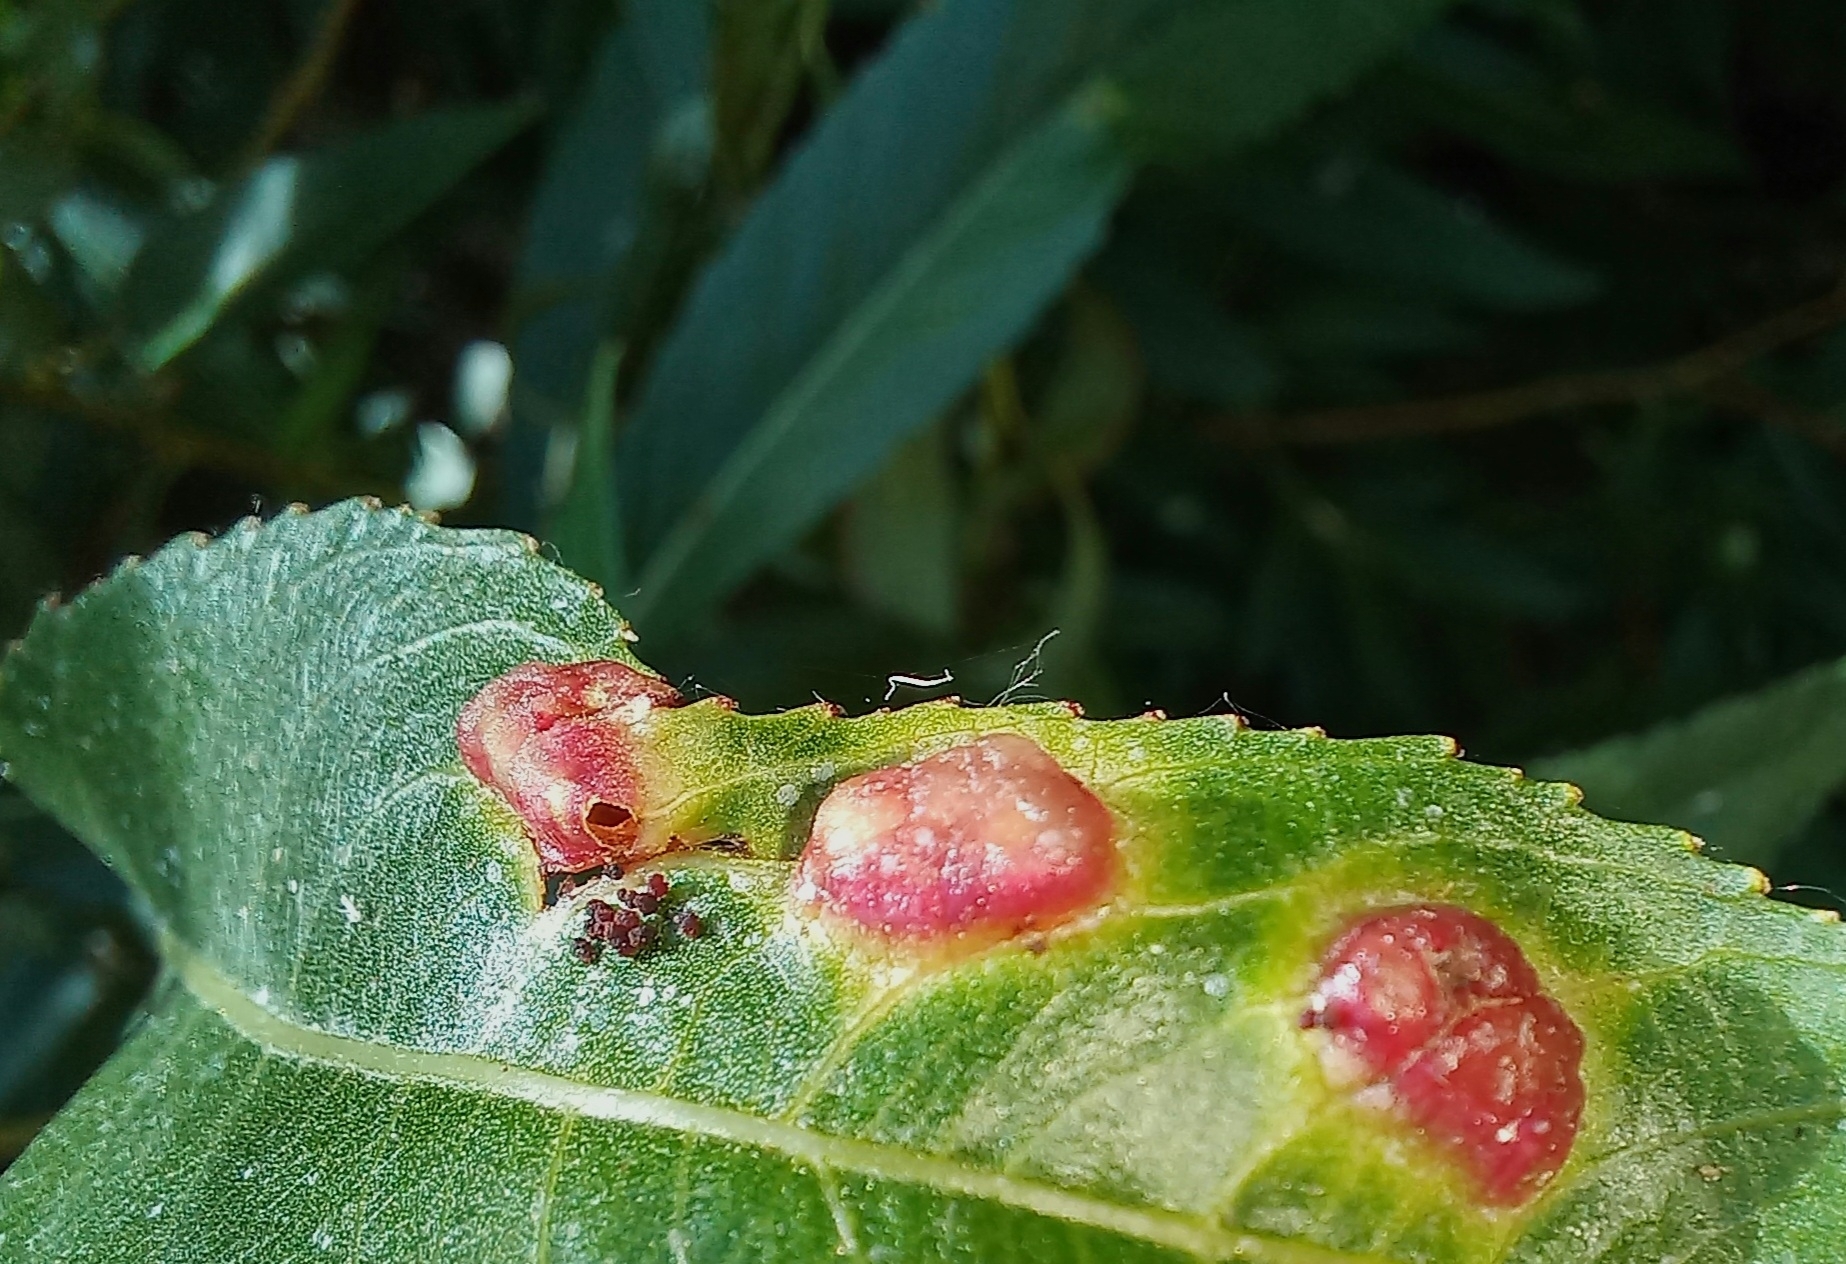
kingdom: Animalia
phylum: Arthropoda
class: Insecta
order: Hymenoptera
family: Tenthredinidae
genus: Pontania
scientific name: Pontania proxima
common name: Common sawfly
